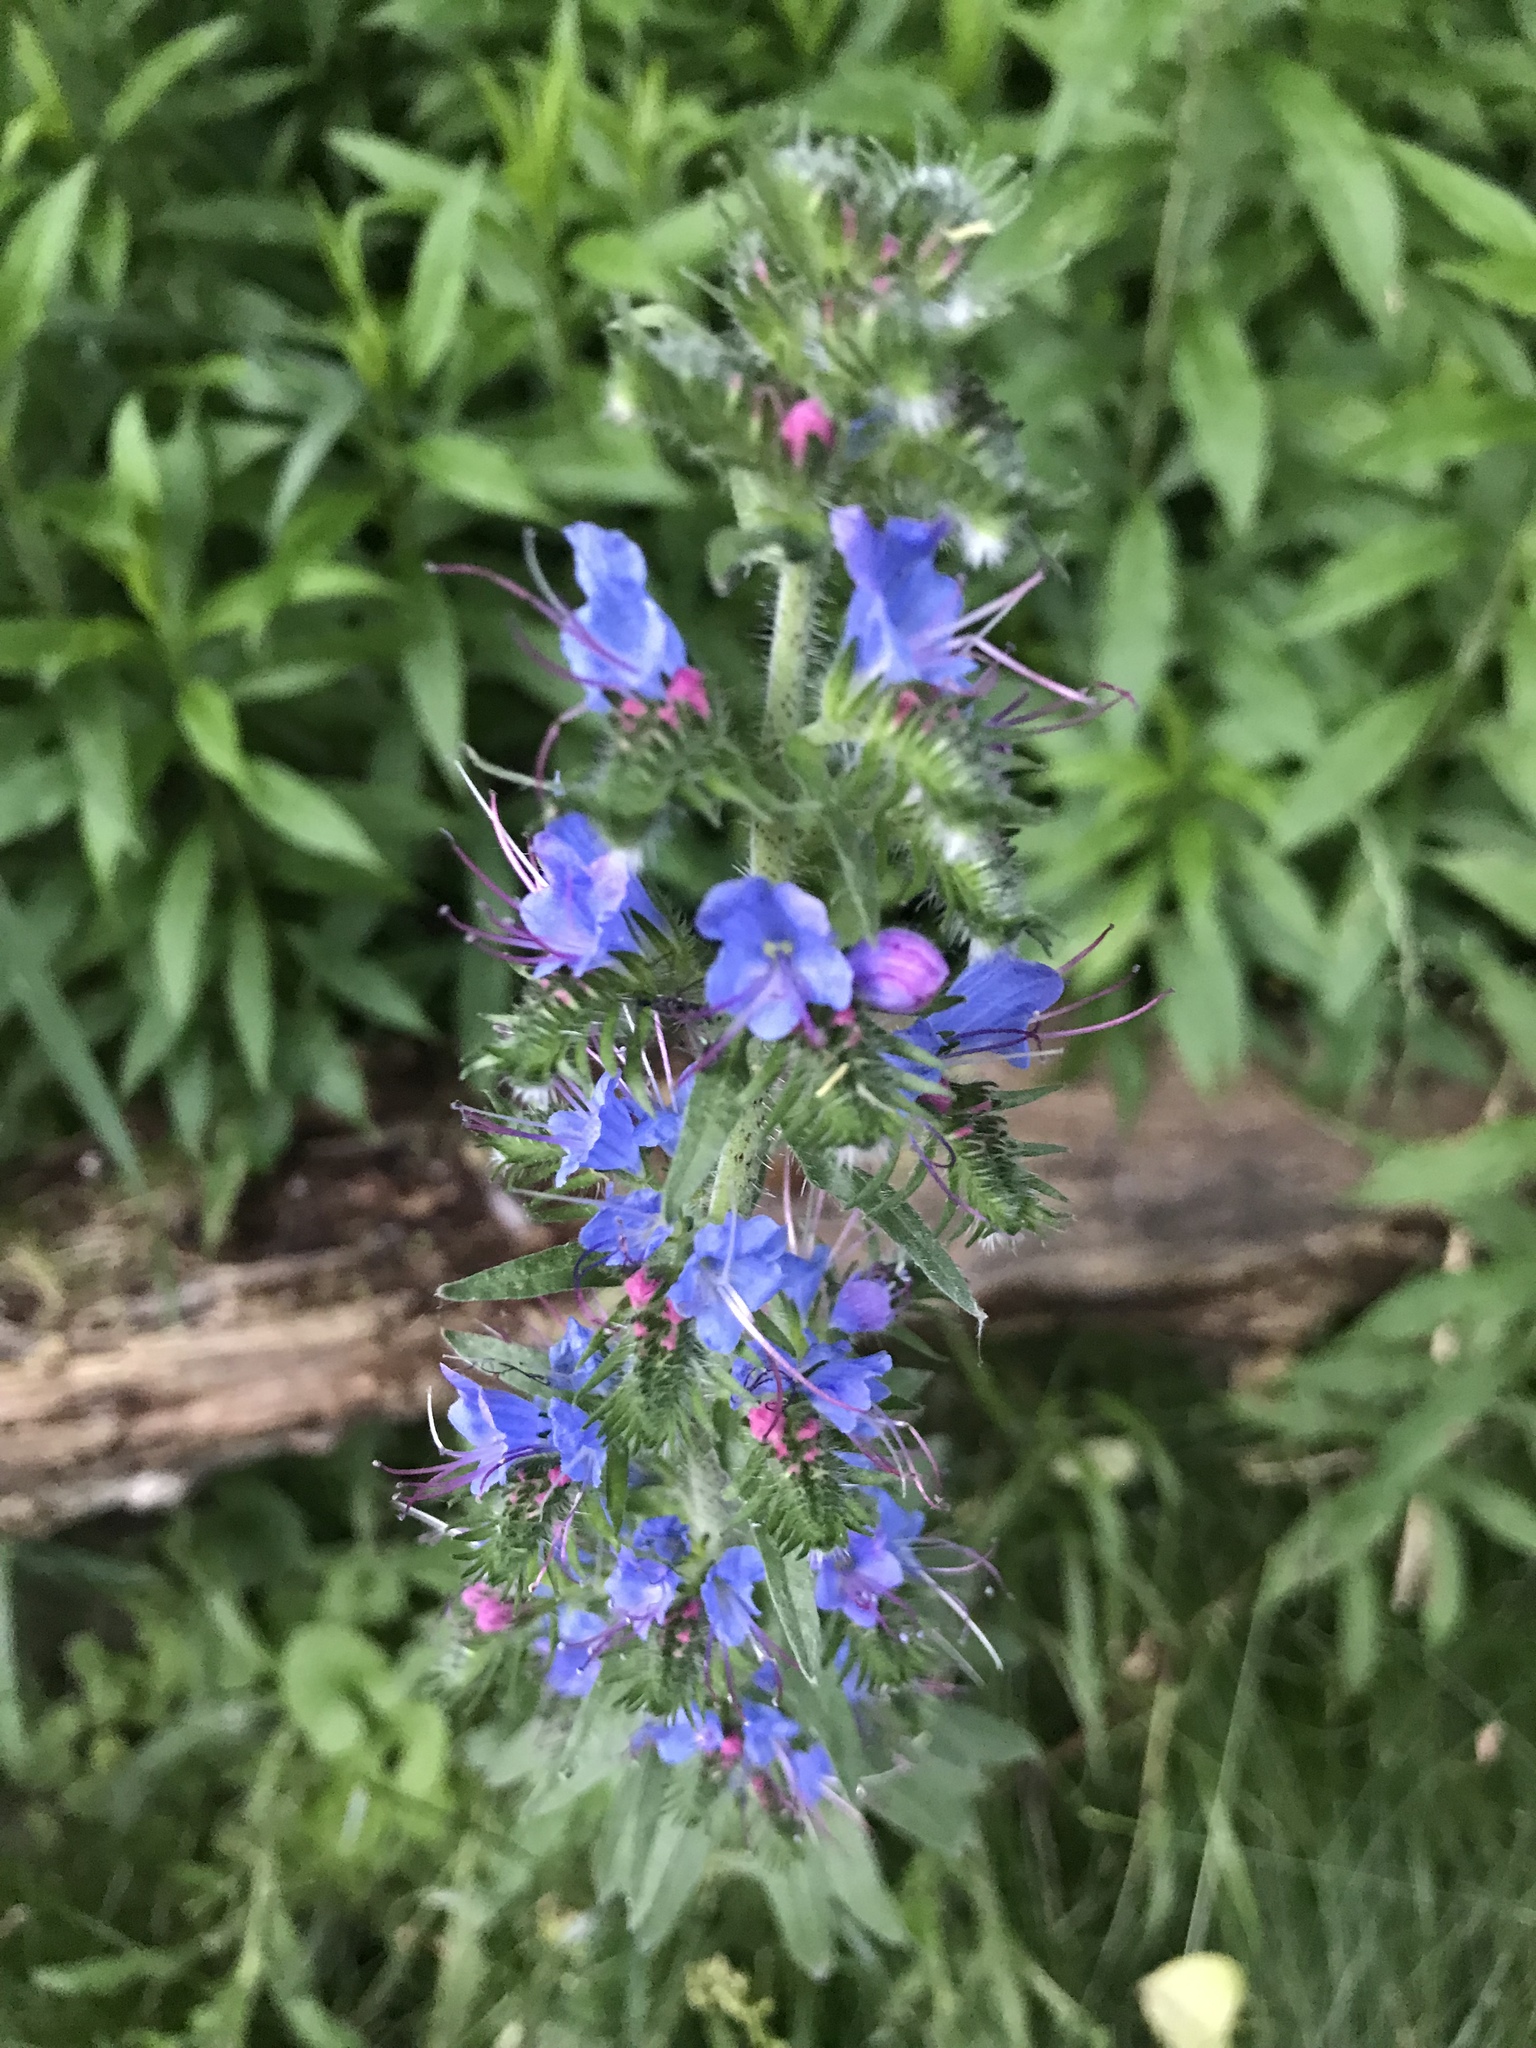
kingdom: Plantae
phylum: Tracheophyta
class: Magnoliopsida
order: Boraginales
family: Boraginaceae
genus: Echium
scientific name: Echium vulgare
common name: Common viper's bugloss
